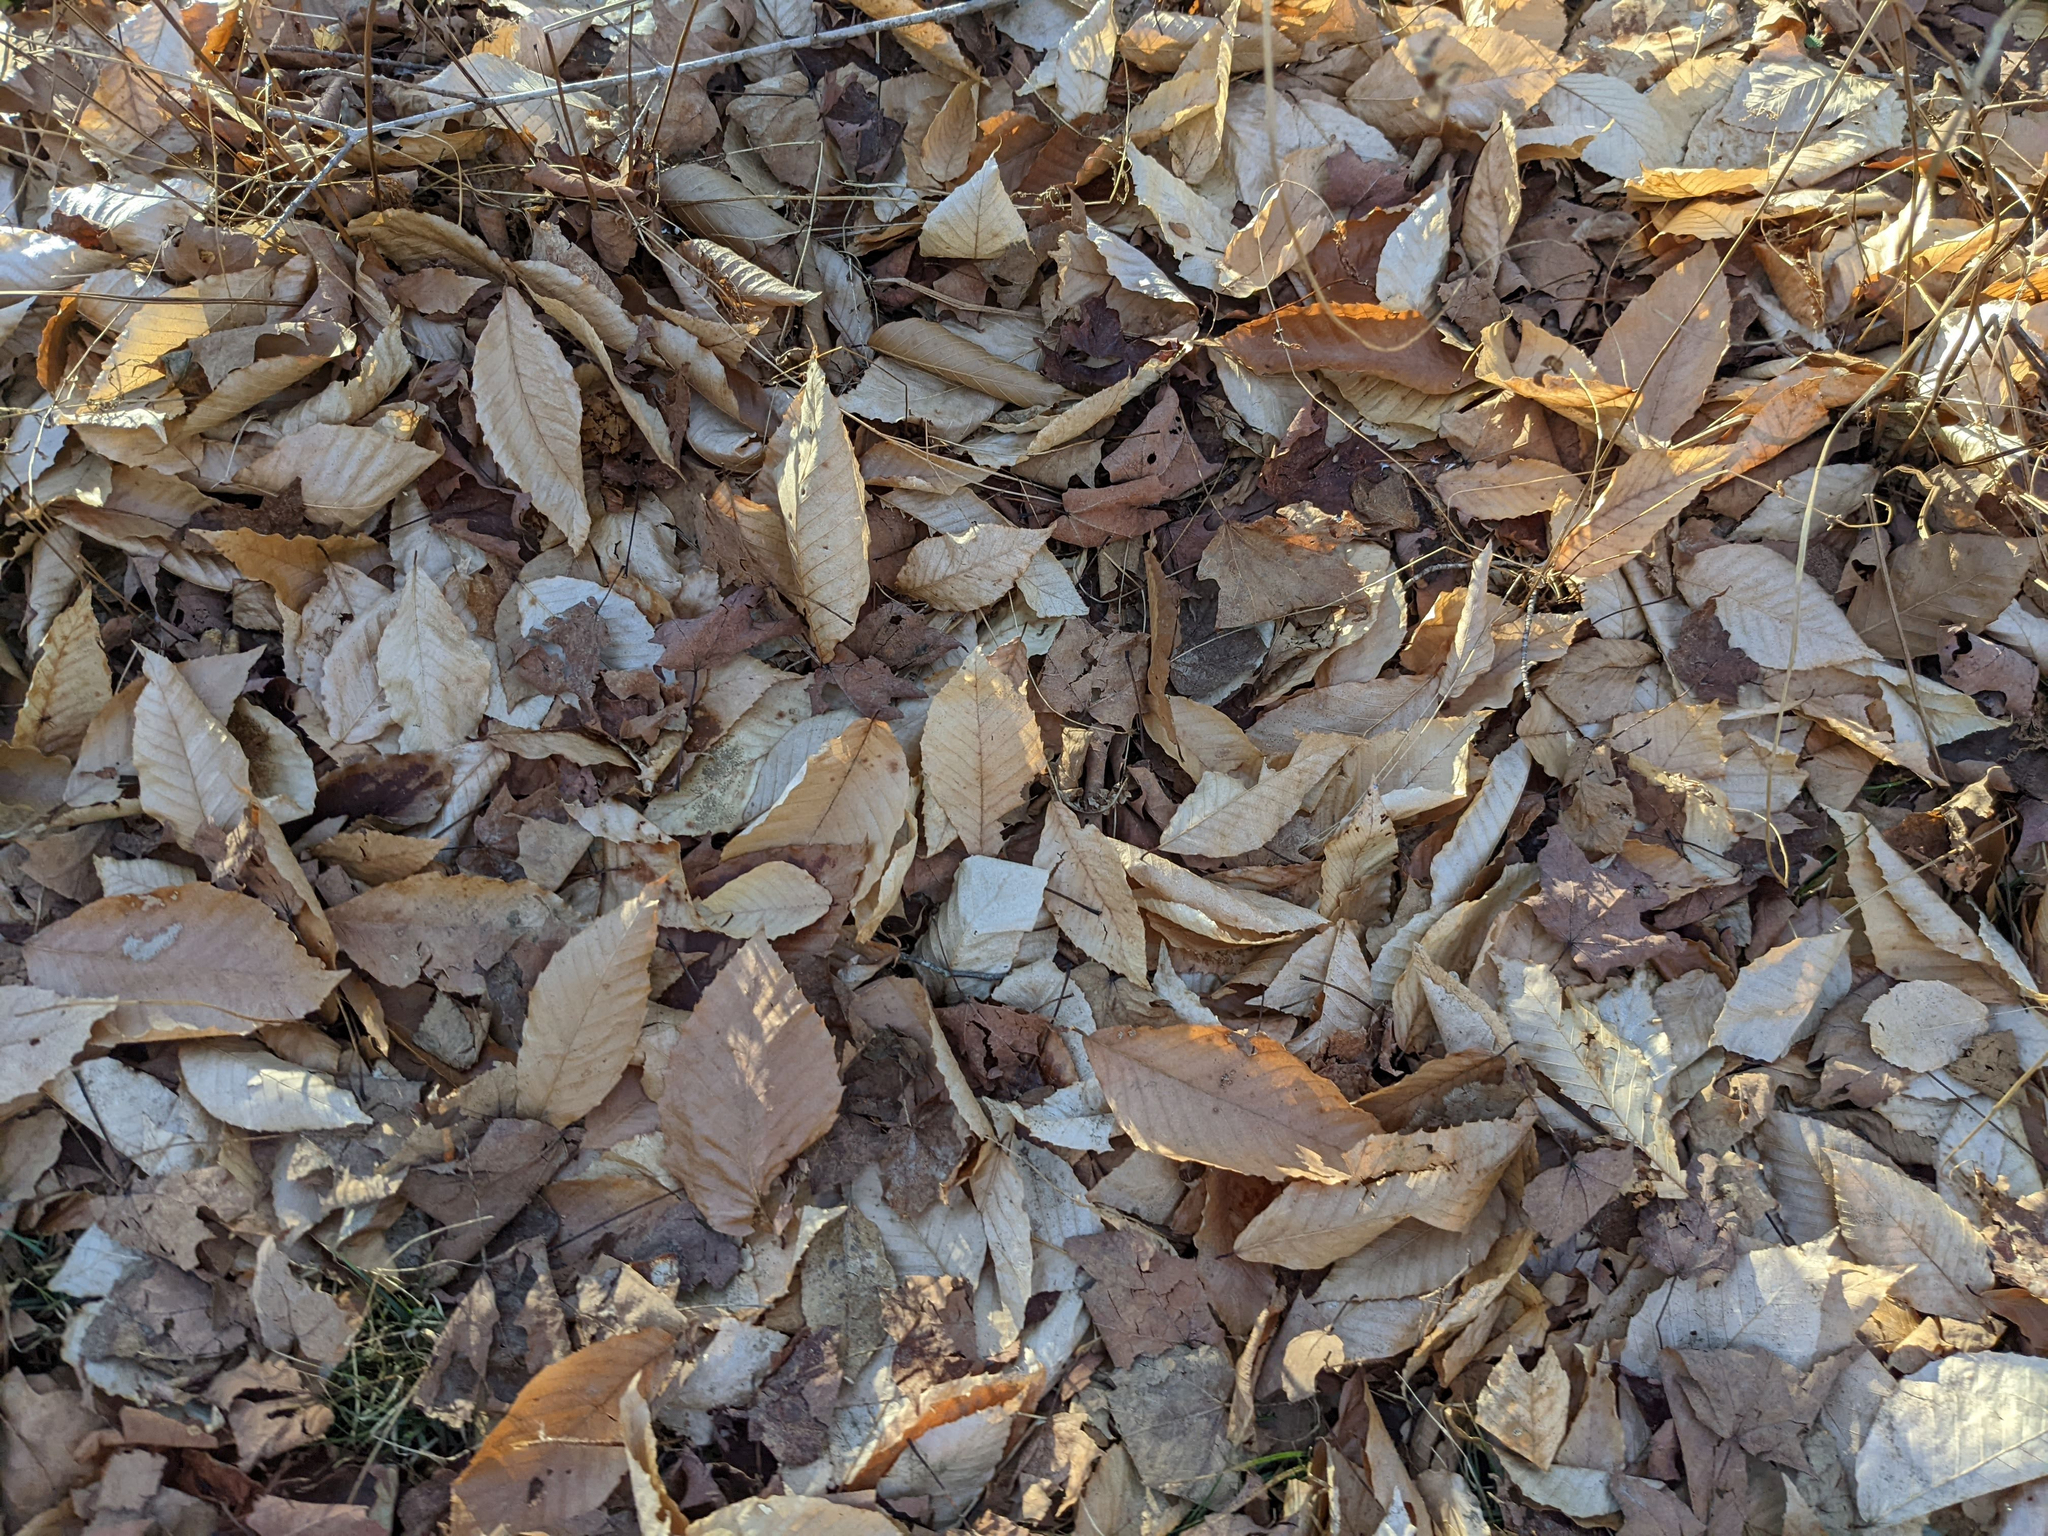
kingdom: Plantae
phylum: Tracheophyta
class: Magnoliopsida
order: Fagales
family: Fagaceae
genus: Fagus
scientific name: Fagus grandifolia
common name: American beech
